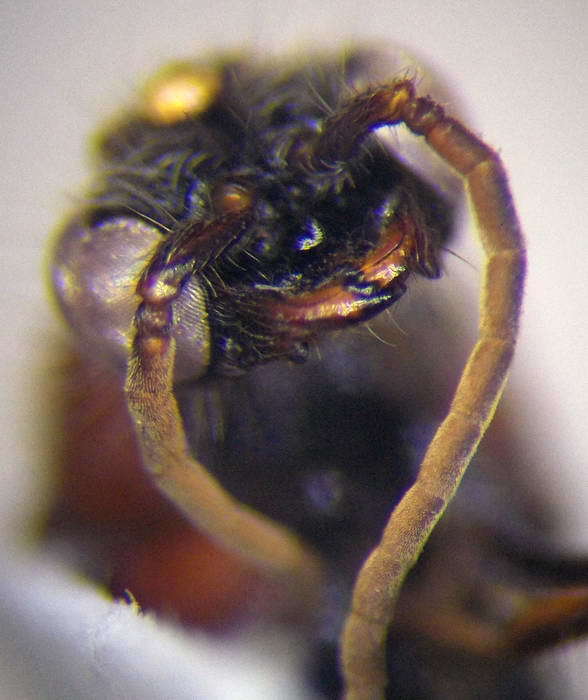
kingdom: Animalia
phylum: Arthropoda
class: Insecta
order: Hymenoptera
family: Mutillidae
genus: Smicromyrme
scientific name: Smicromyrme rufipes
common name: Small velvet ant
